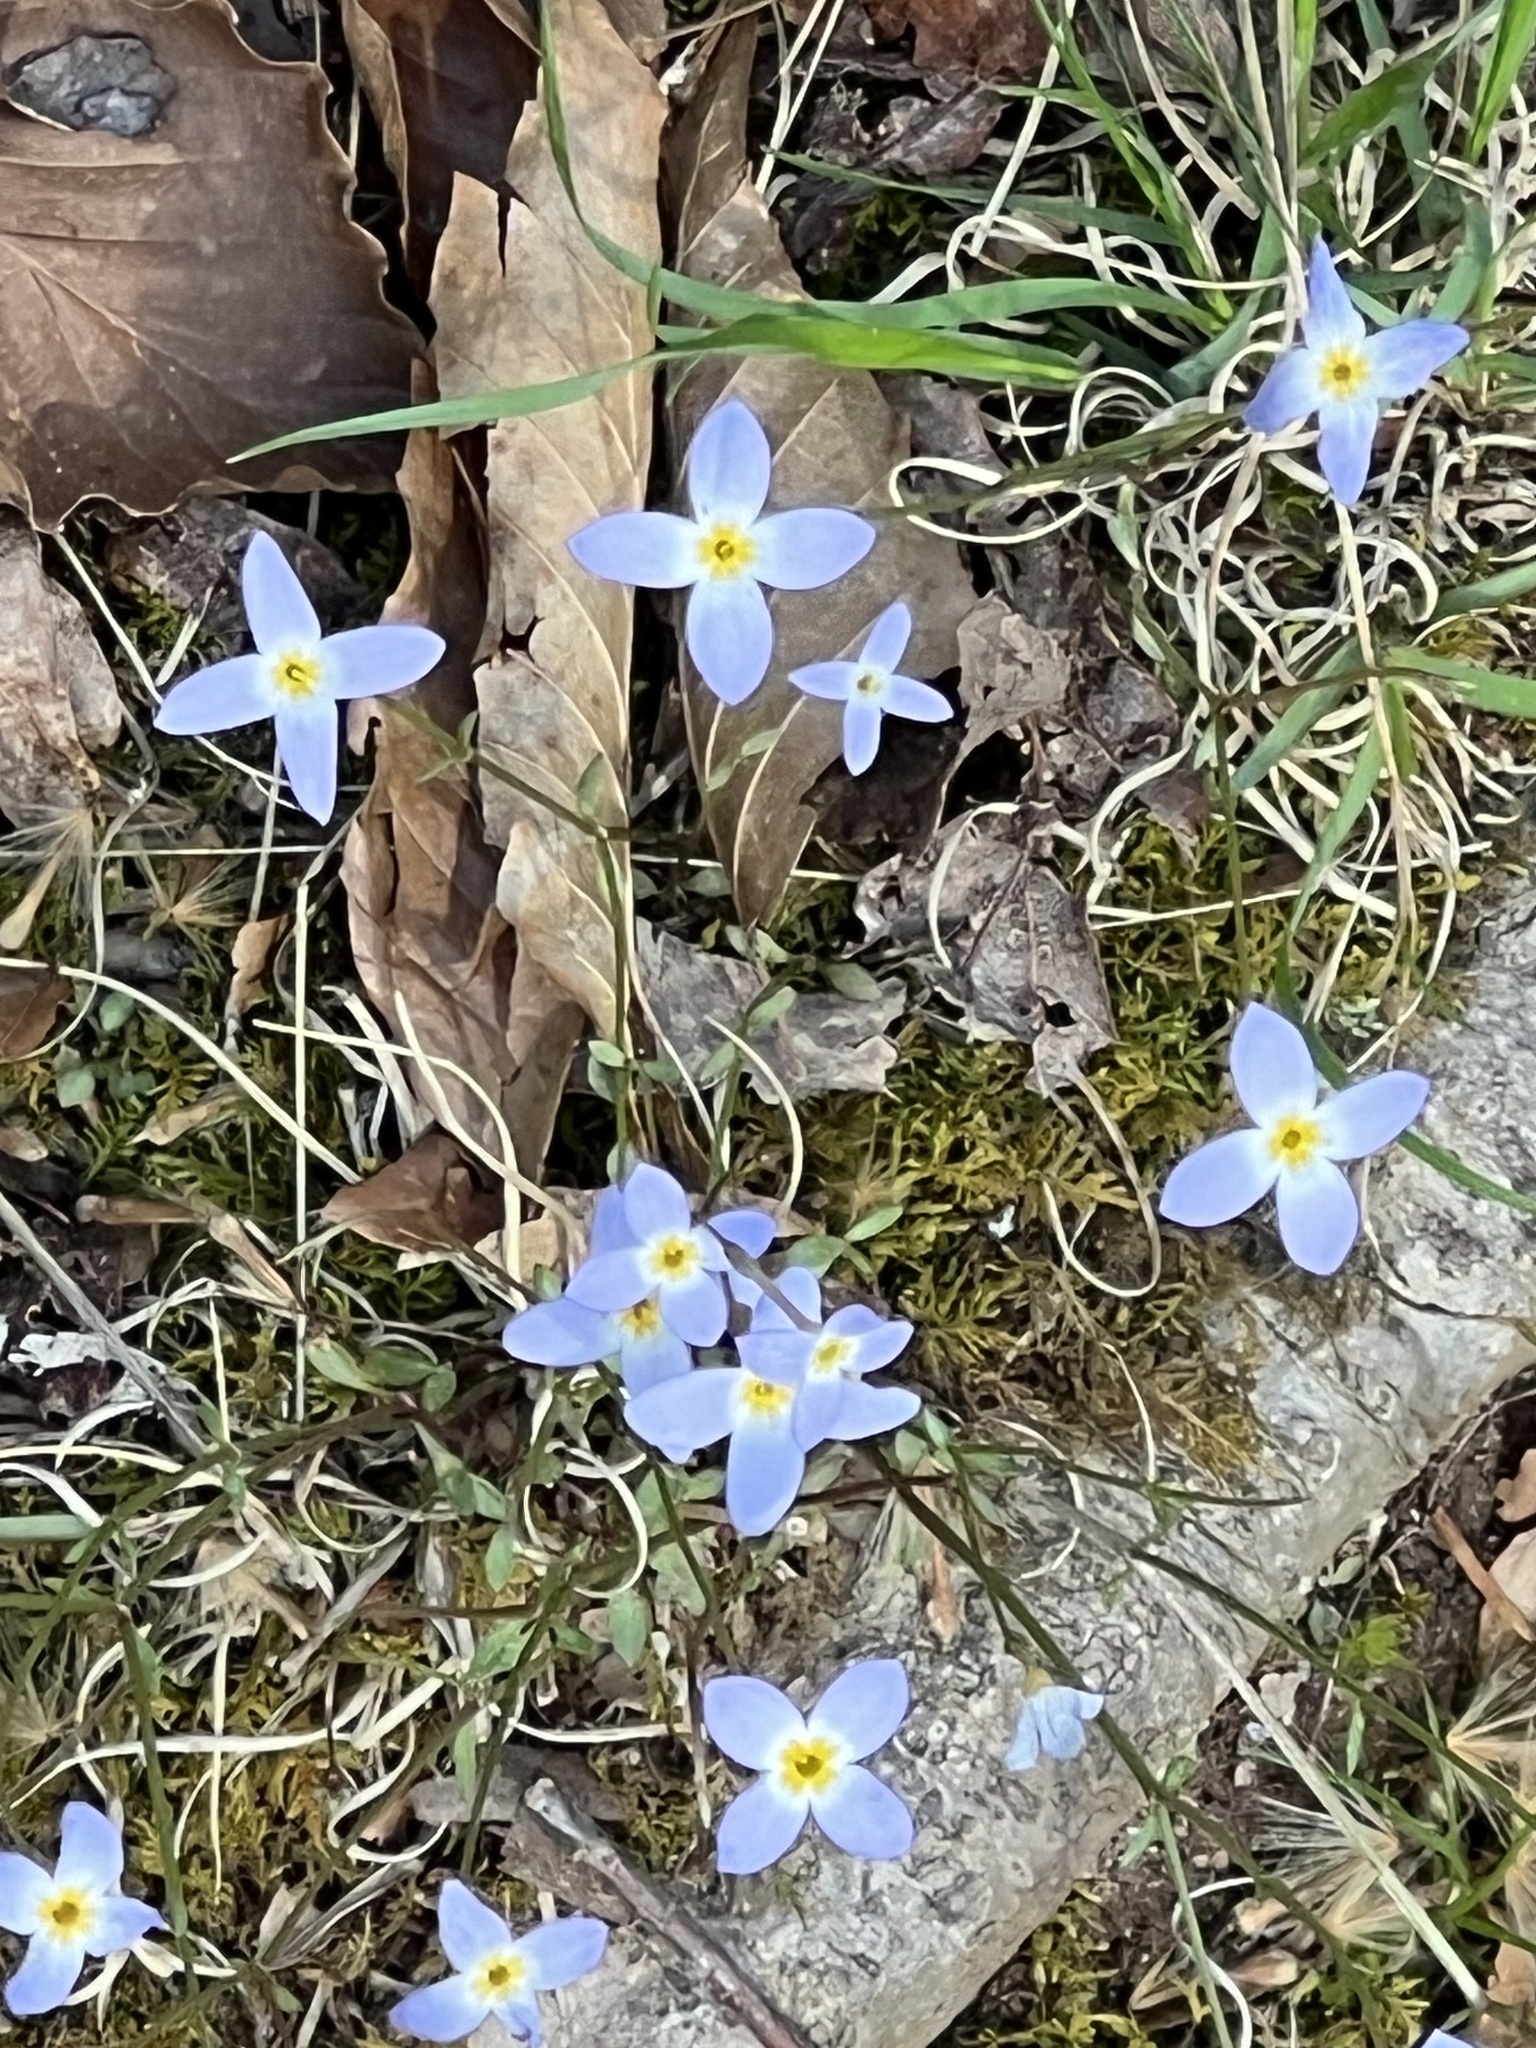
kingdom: Plantae
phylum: Tracheophyta
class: Magnoliopsida
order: Gentianales
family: Rubiaceae
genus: Houstonia
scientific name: Houstonia caerulea
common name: Bluets
